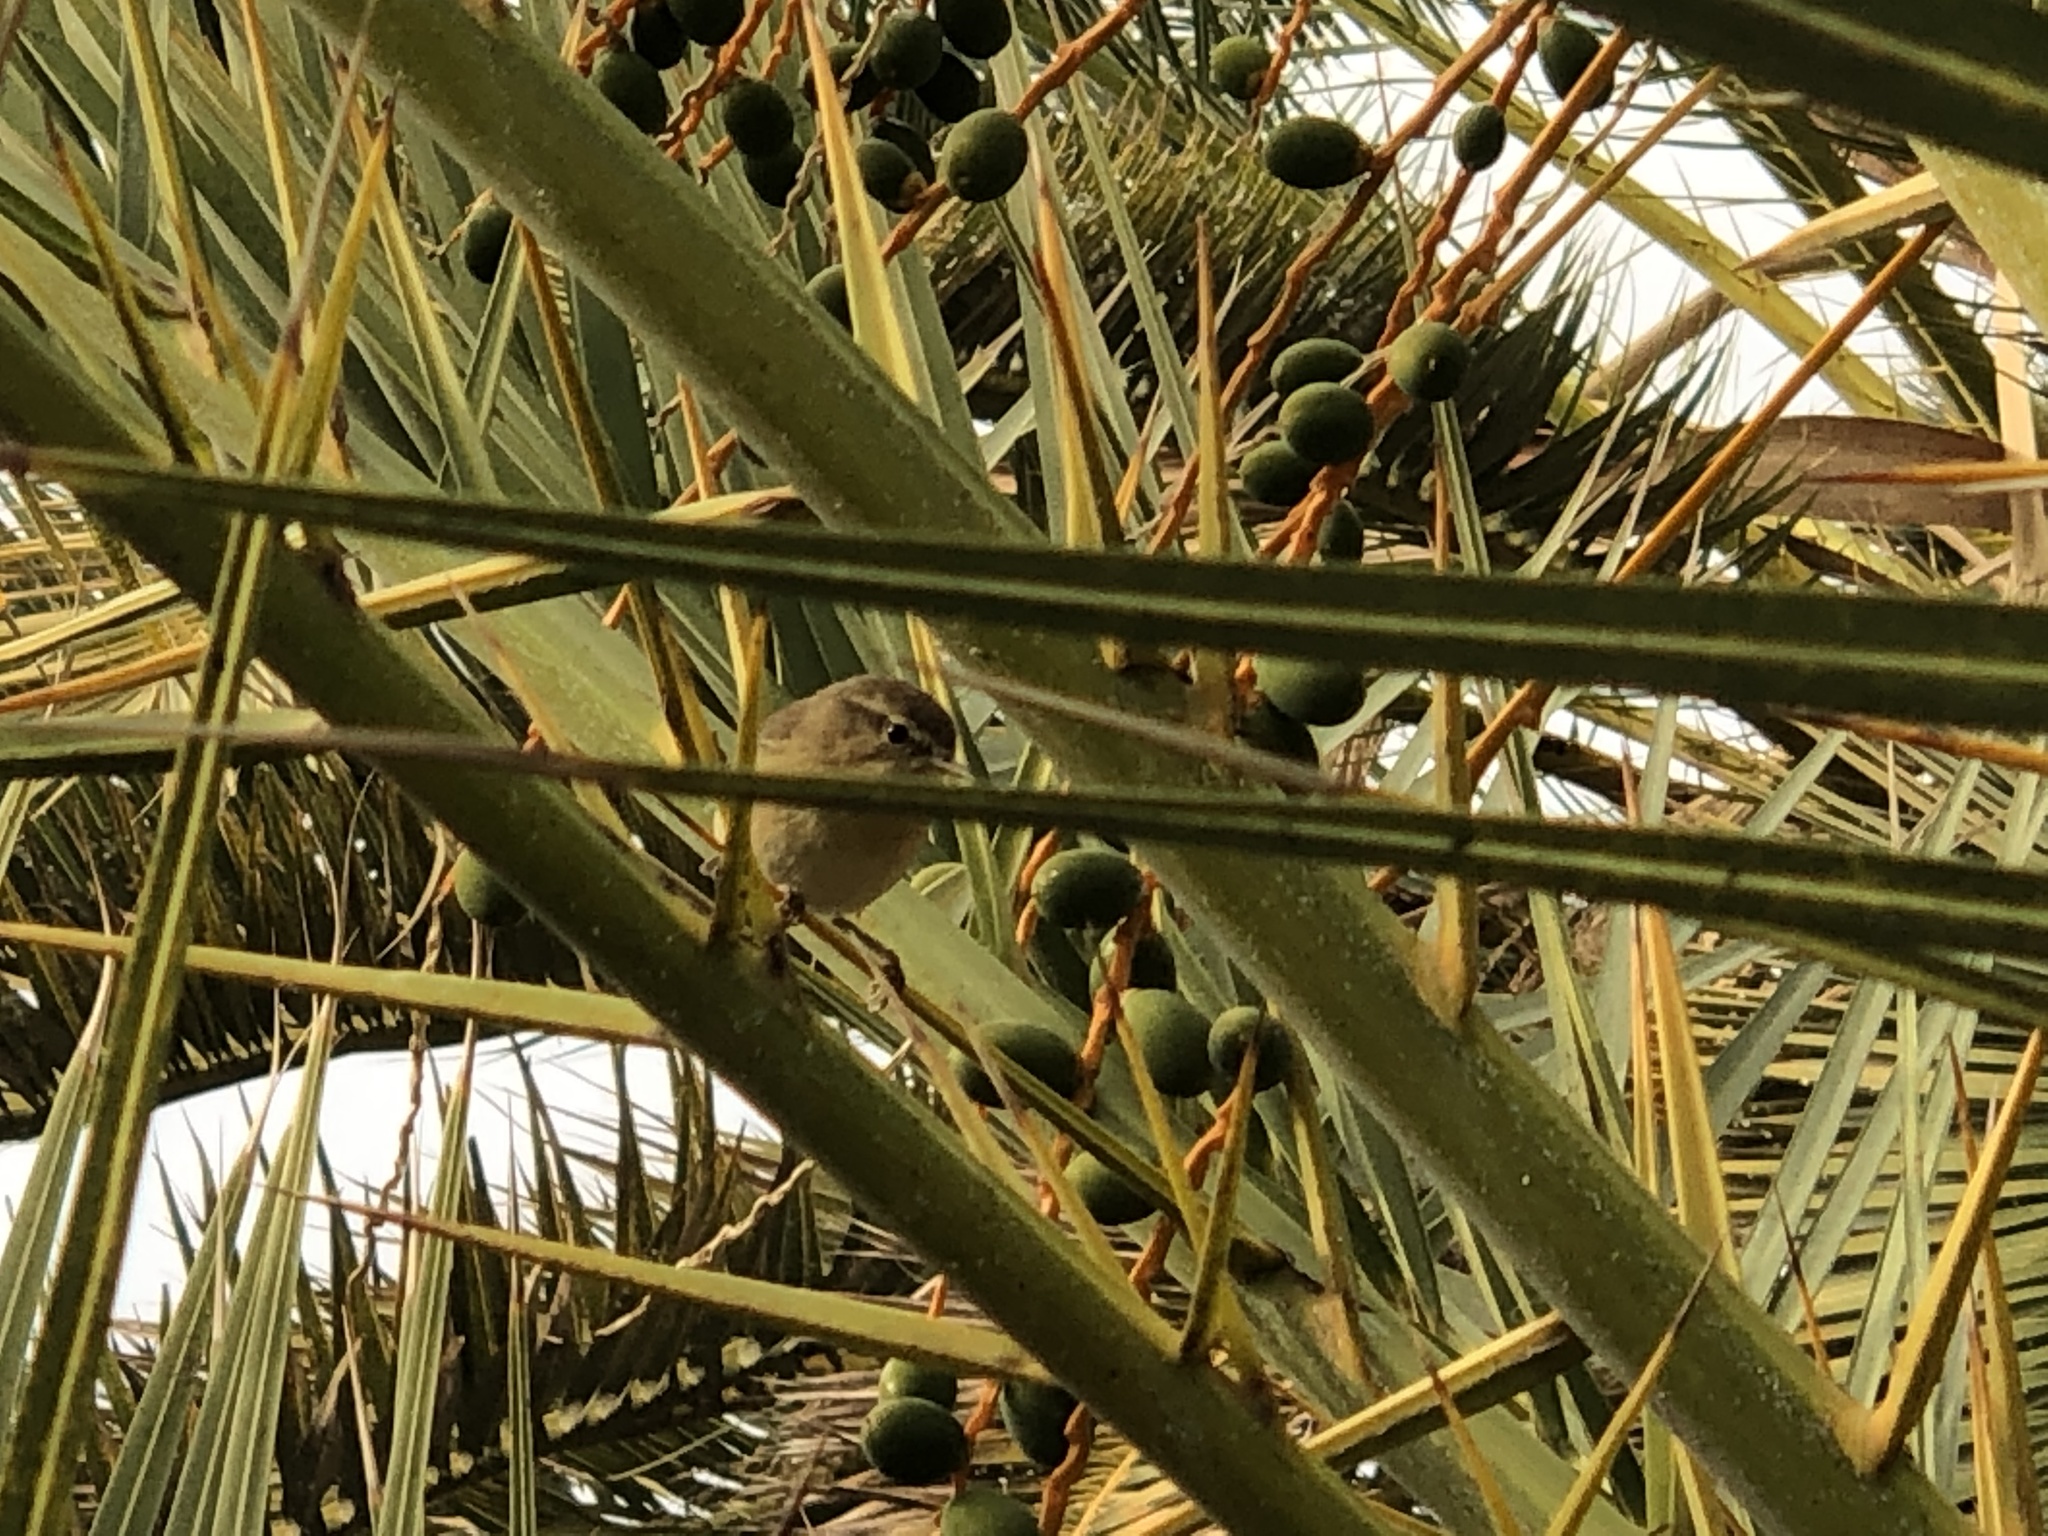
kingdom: Animalia
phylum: Chordata
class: Aves
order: Passeriformes
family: Phylloscopidae
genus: Phylloscopus
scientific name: Phylloscopus canariensis
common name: Canary islands chiffchaff
